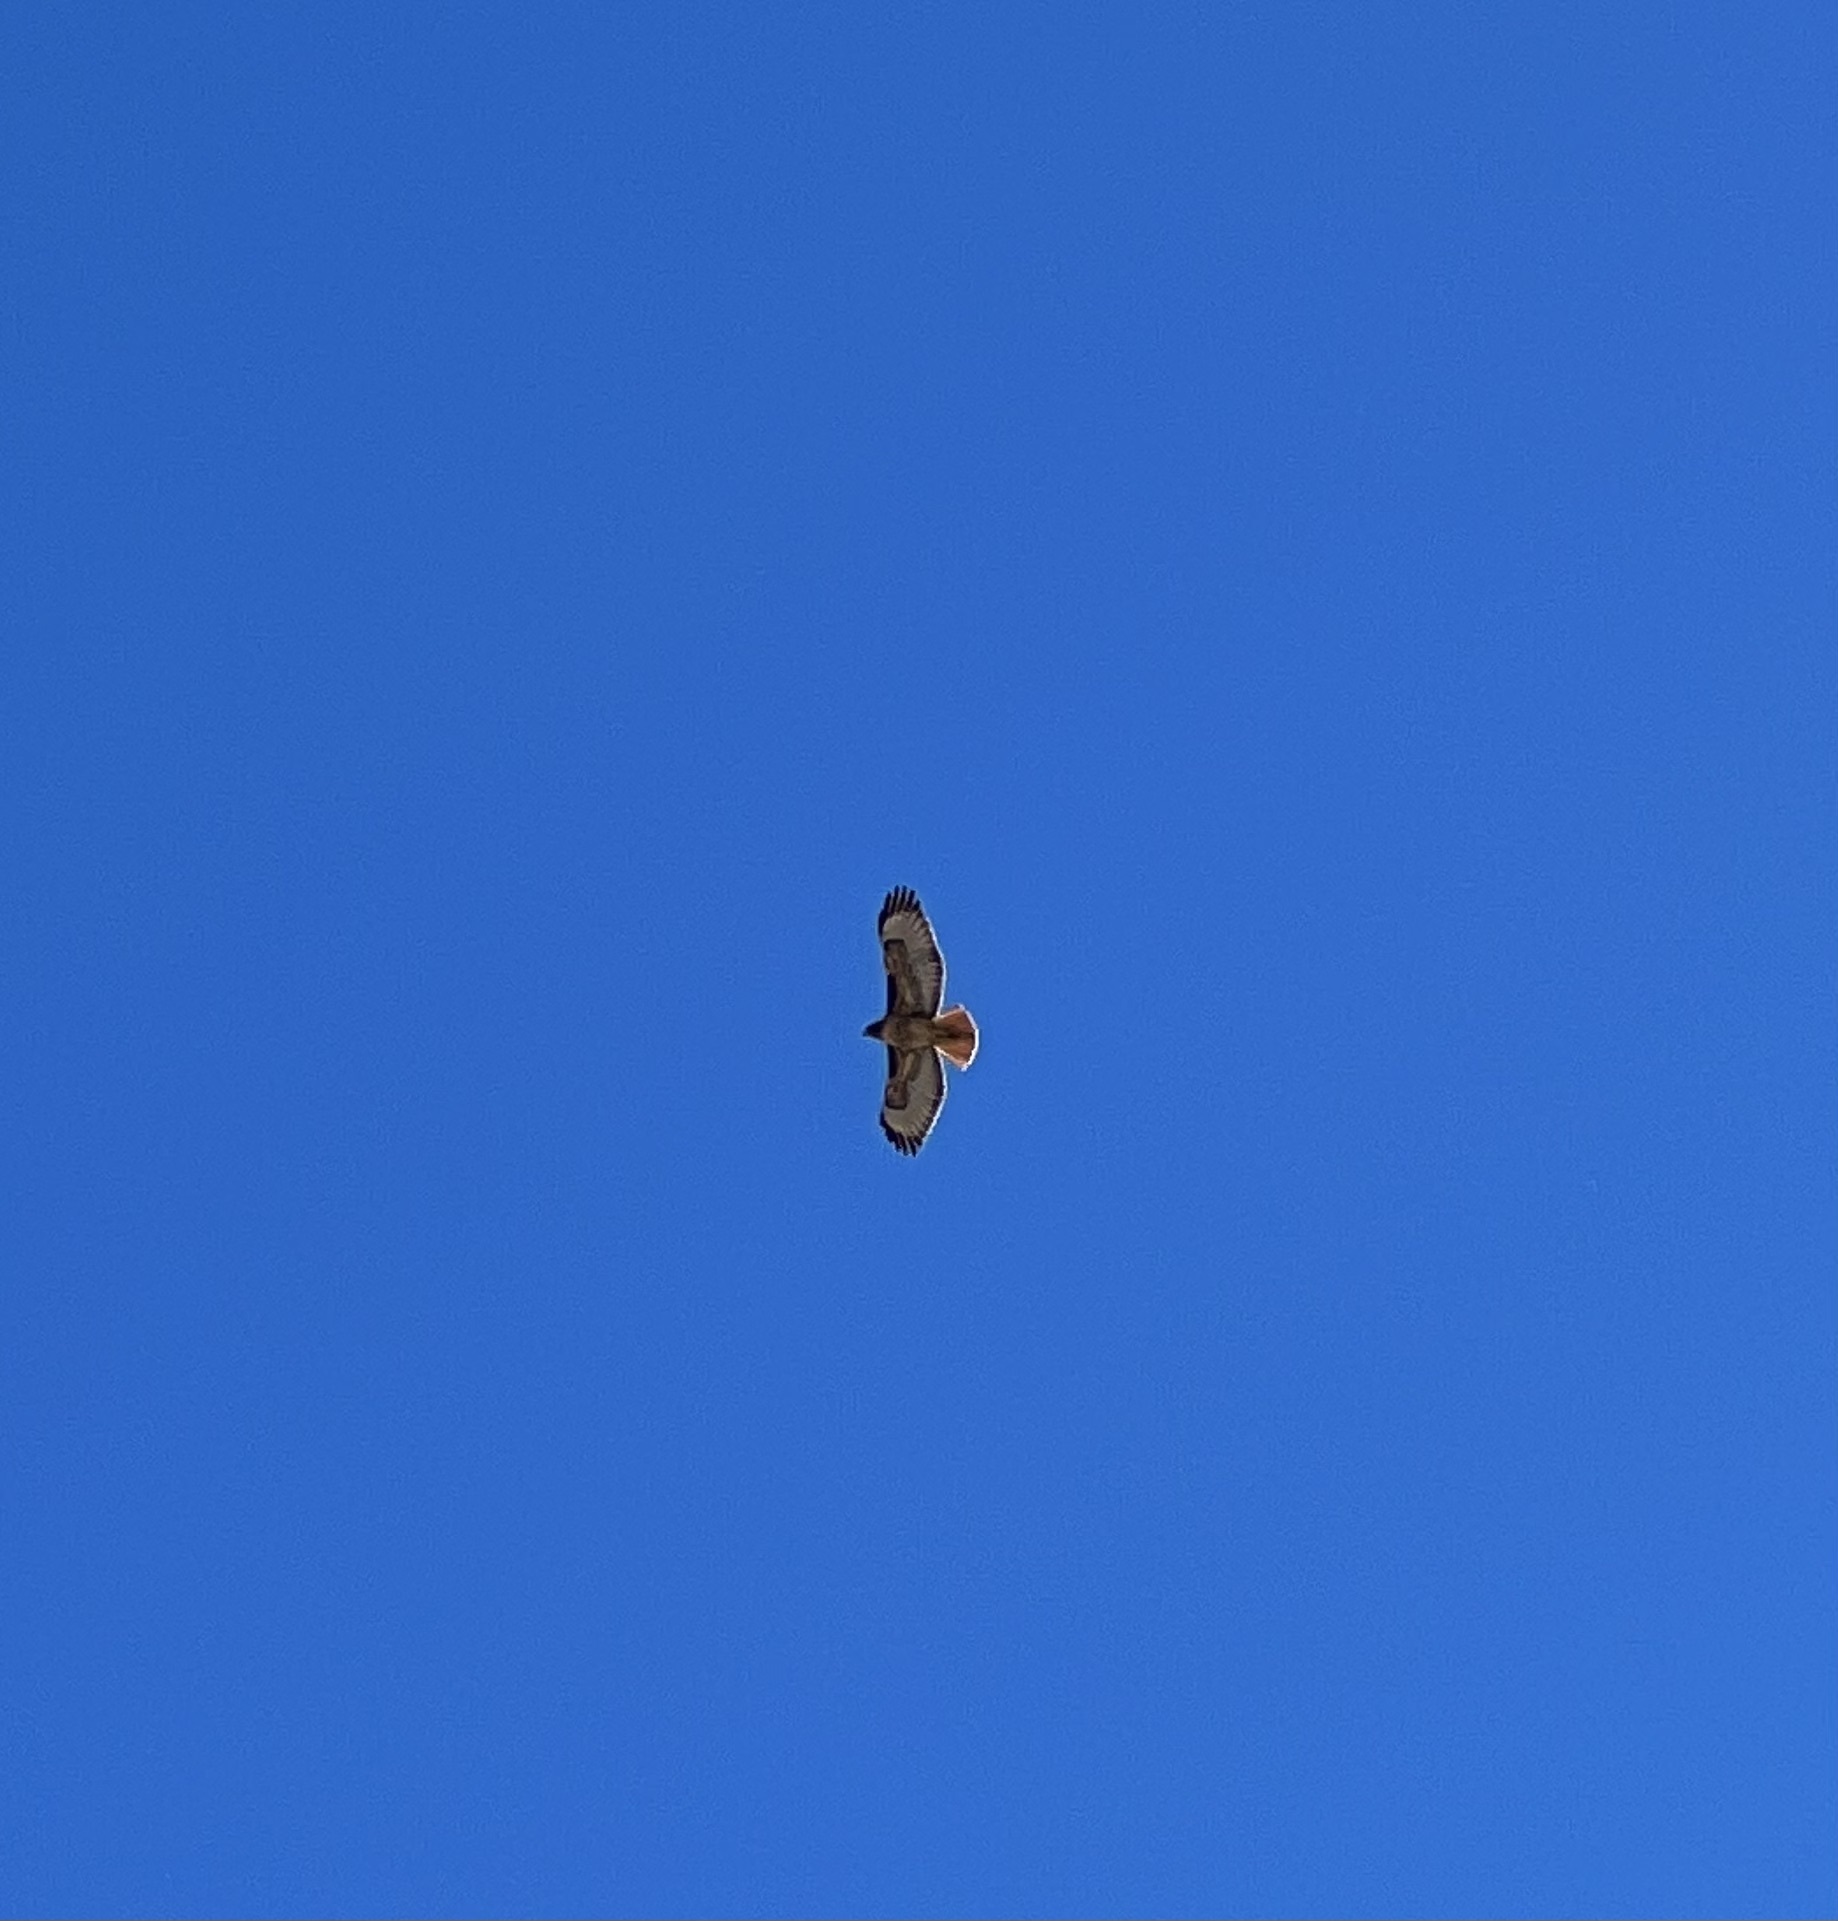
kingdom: Animalia
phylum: Chordata
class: Aves
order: Accipitriformes
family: Accipitridae
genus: Buteo
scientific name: Buteo jamaicensis
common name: Red-tailed hawk
